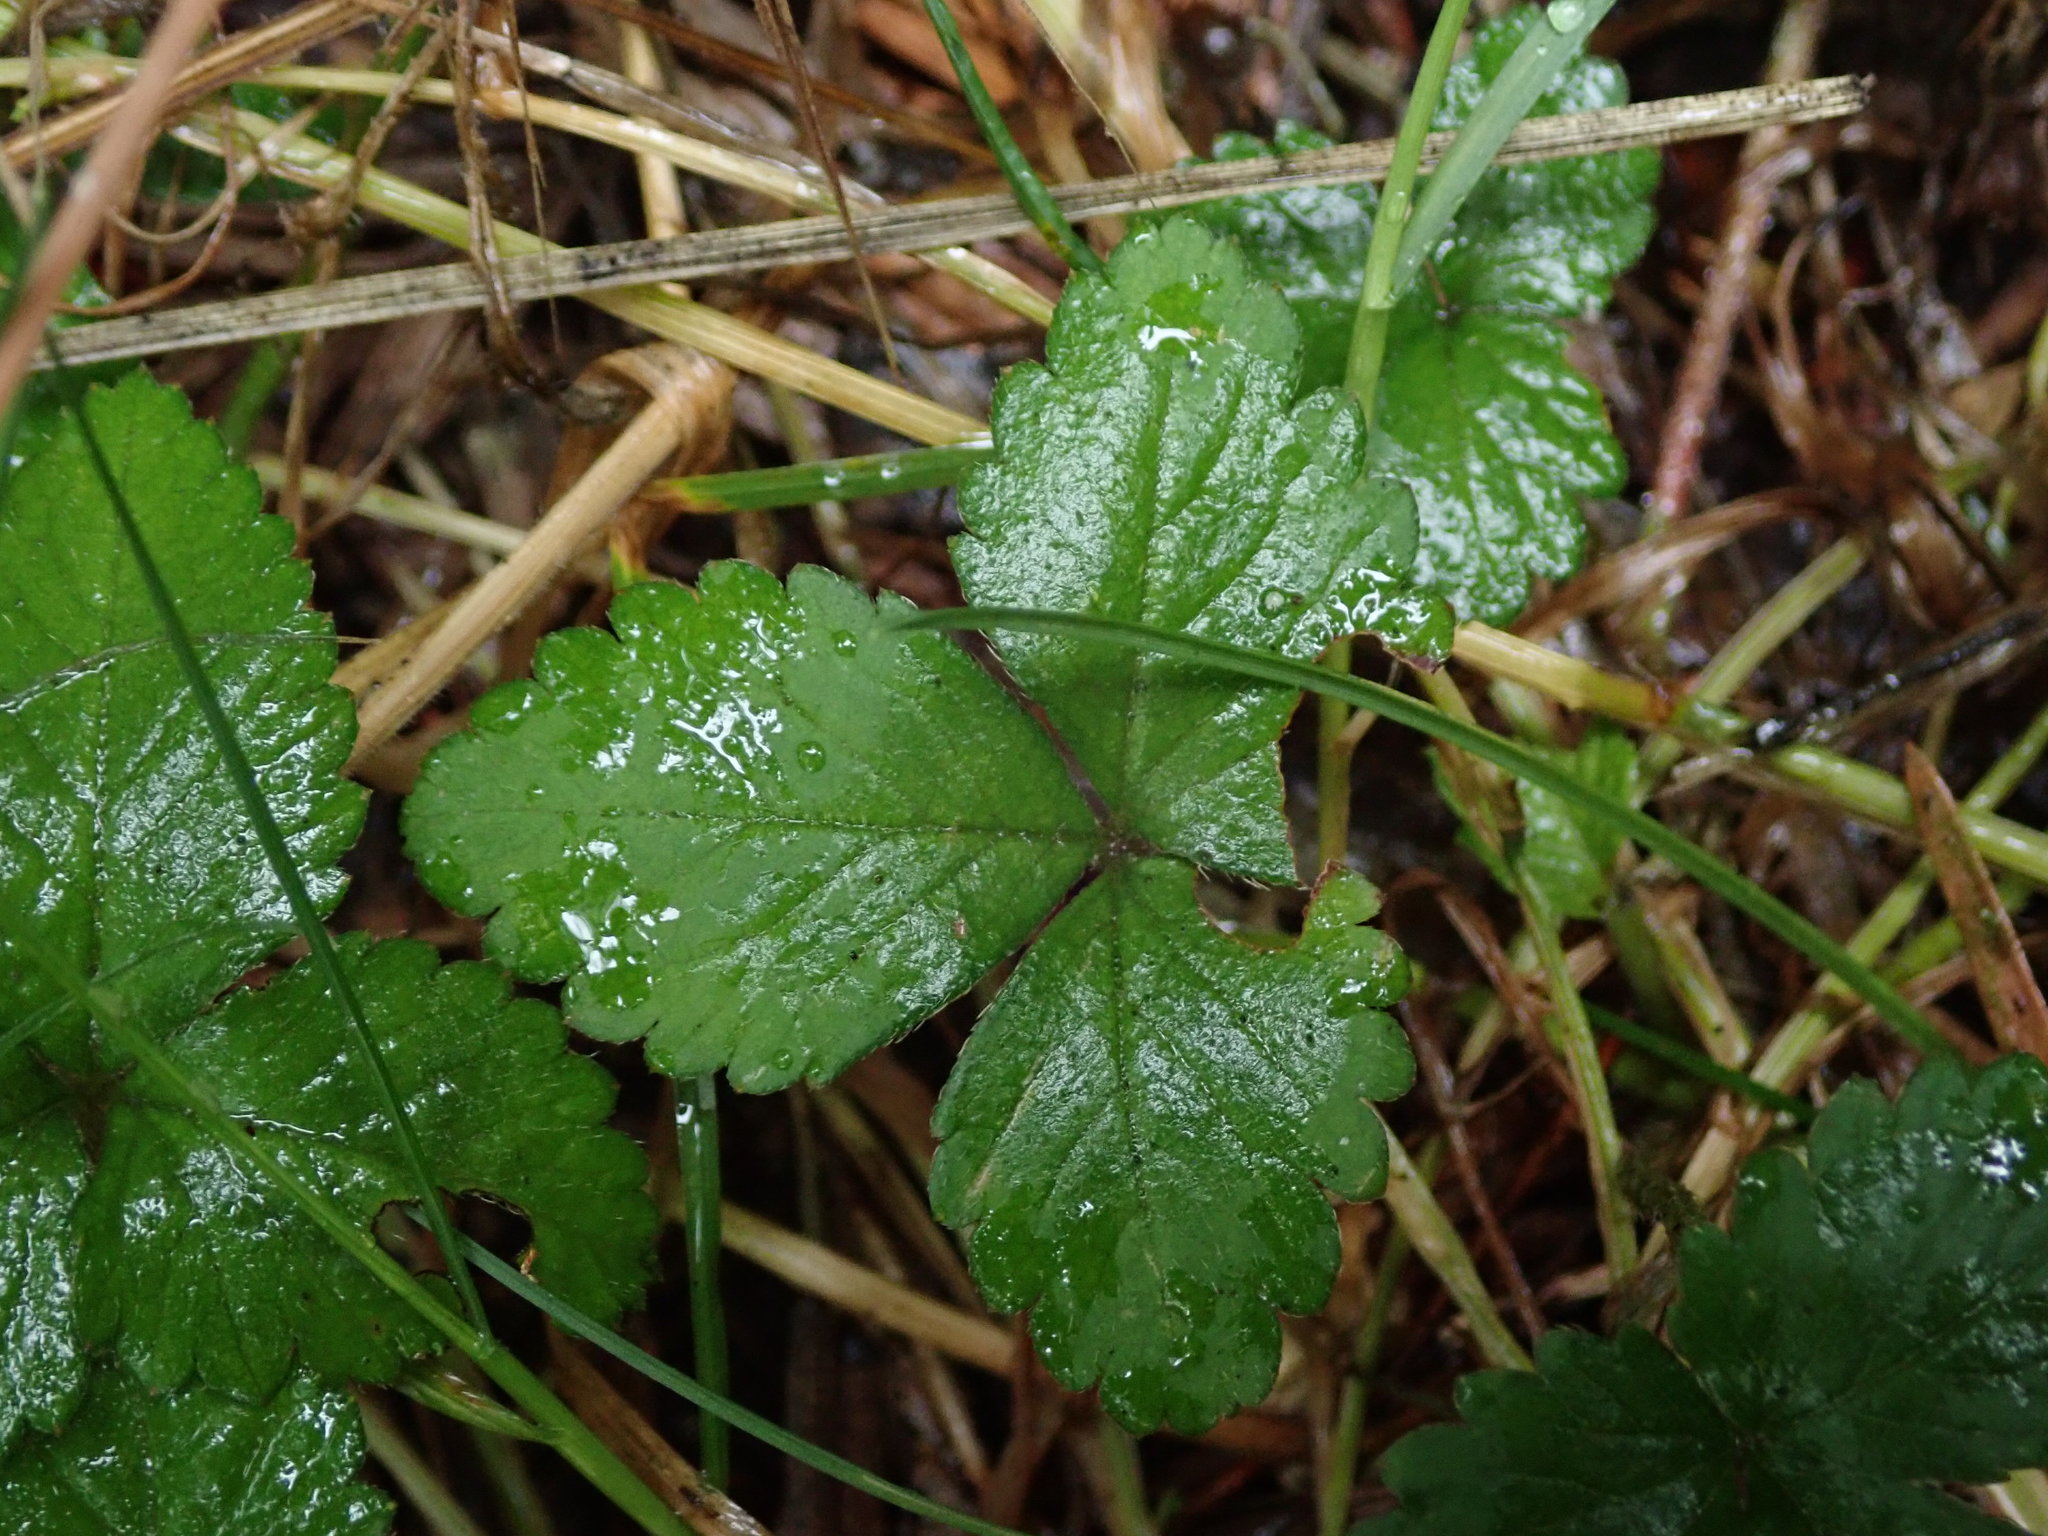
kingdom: Plantae
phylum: Tracheophyta
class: Magnoliopsida
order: Rosales
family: Rosaceae
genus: Potentilla
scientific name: Potentilla indica
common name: Yellow-flowered strawberry
